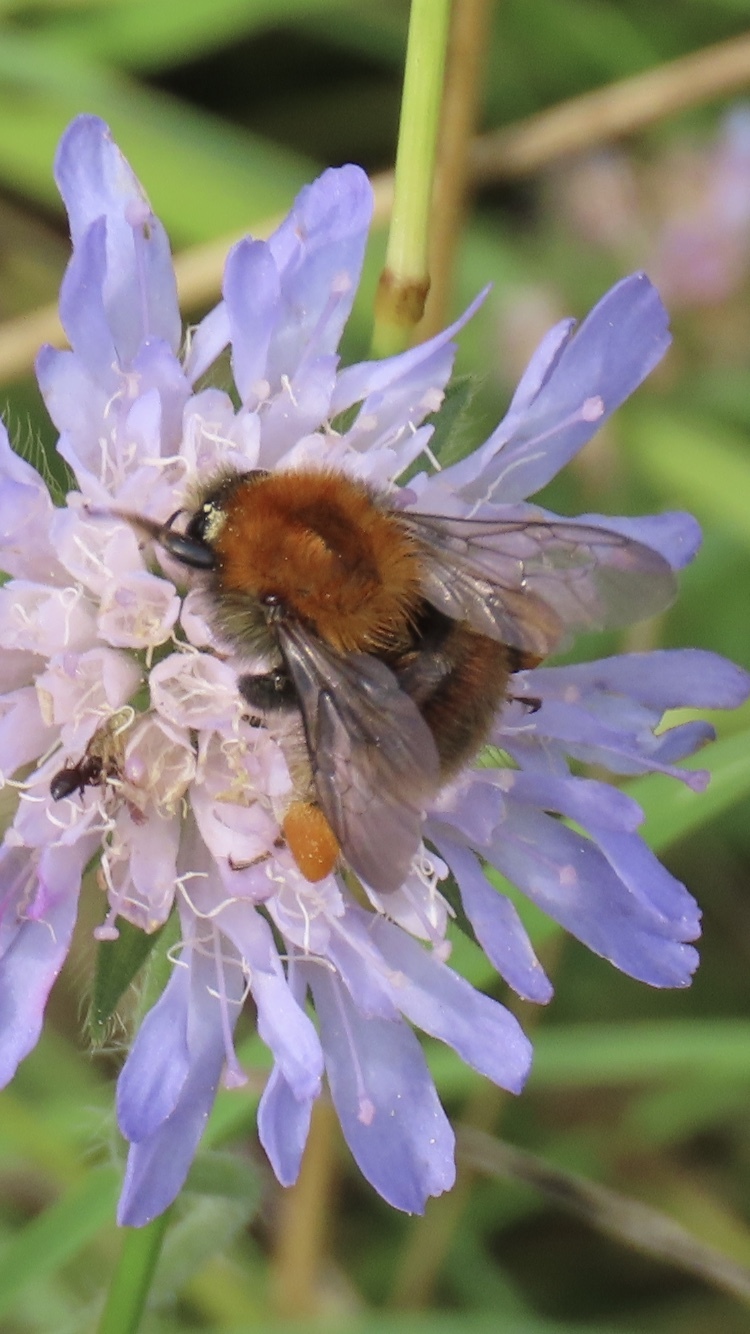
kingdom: Animalia
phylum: Arthropoda
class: Insecta
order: Hymenoptera
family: Apidae
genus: Bombus
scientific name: Bombus pascuorum
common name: Common carder bee
